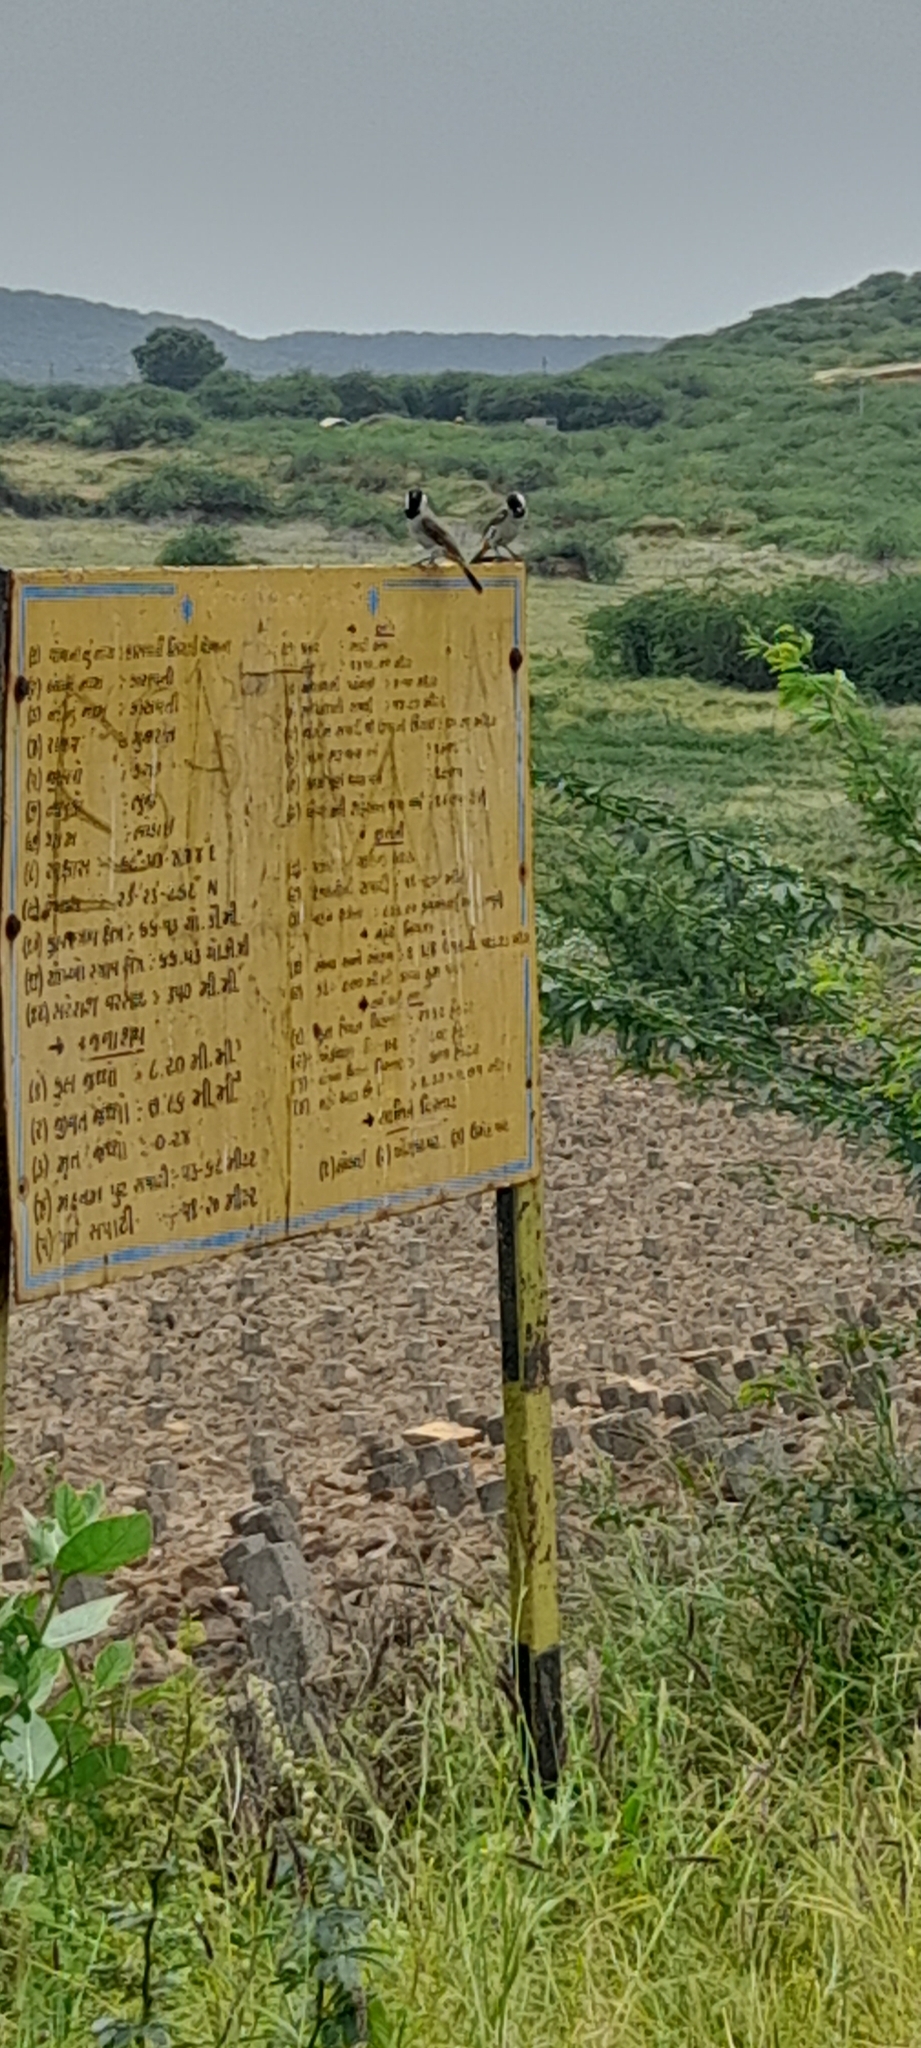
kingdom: Animalia
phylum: Chordata
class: Aves
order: Passeriformes
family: Pycnonotidae
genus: Pycnonotus
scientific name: Pycnonotus leucotis
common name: White-eared bulbul
